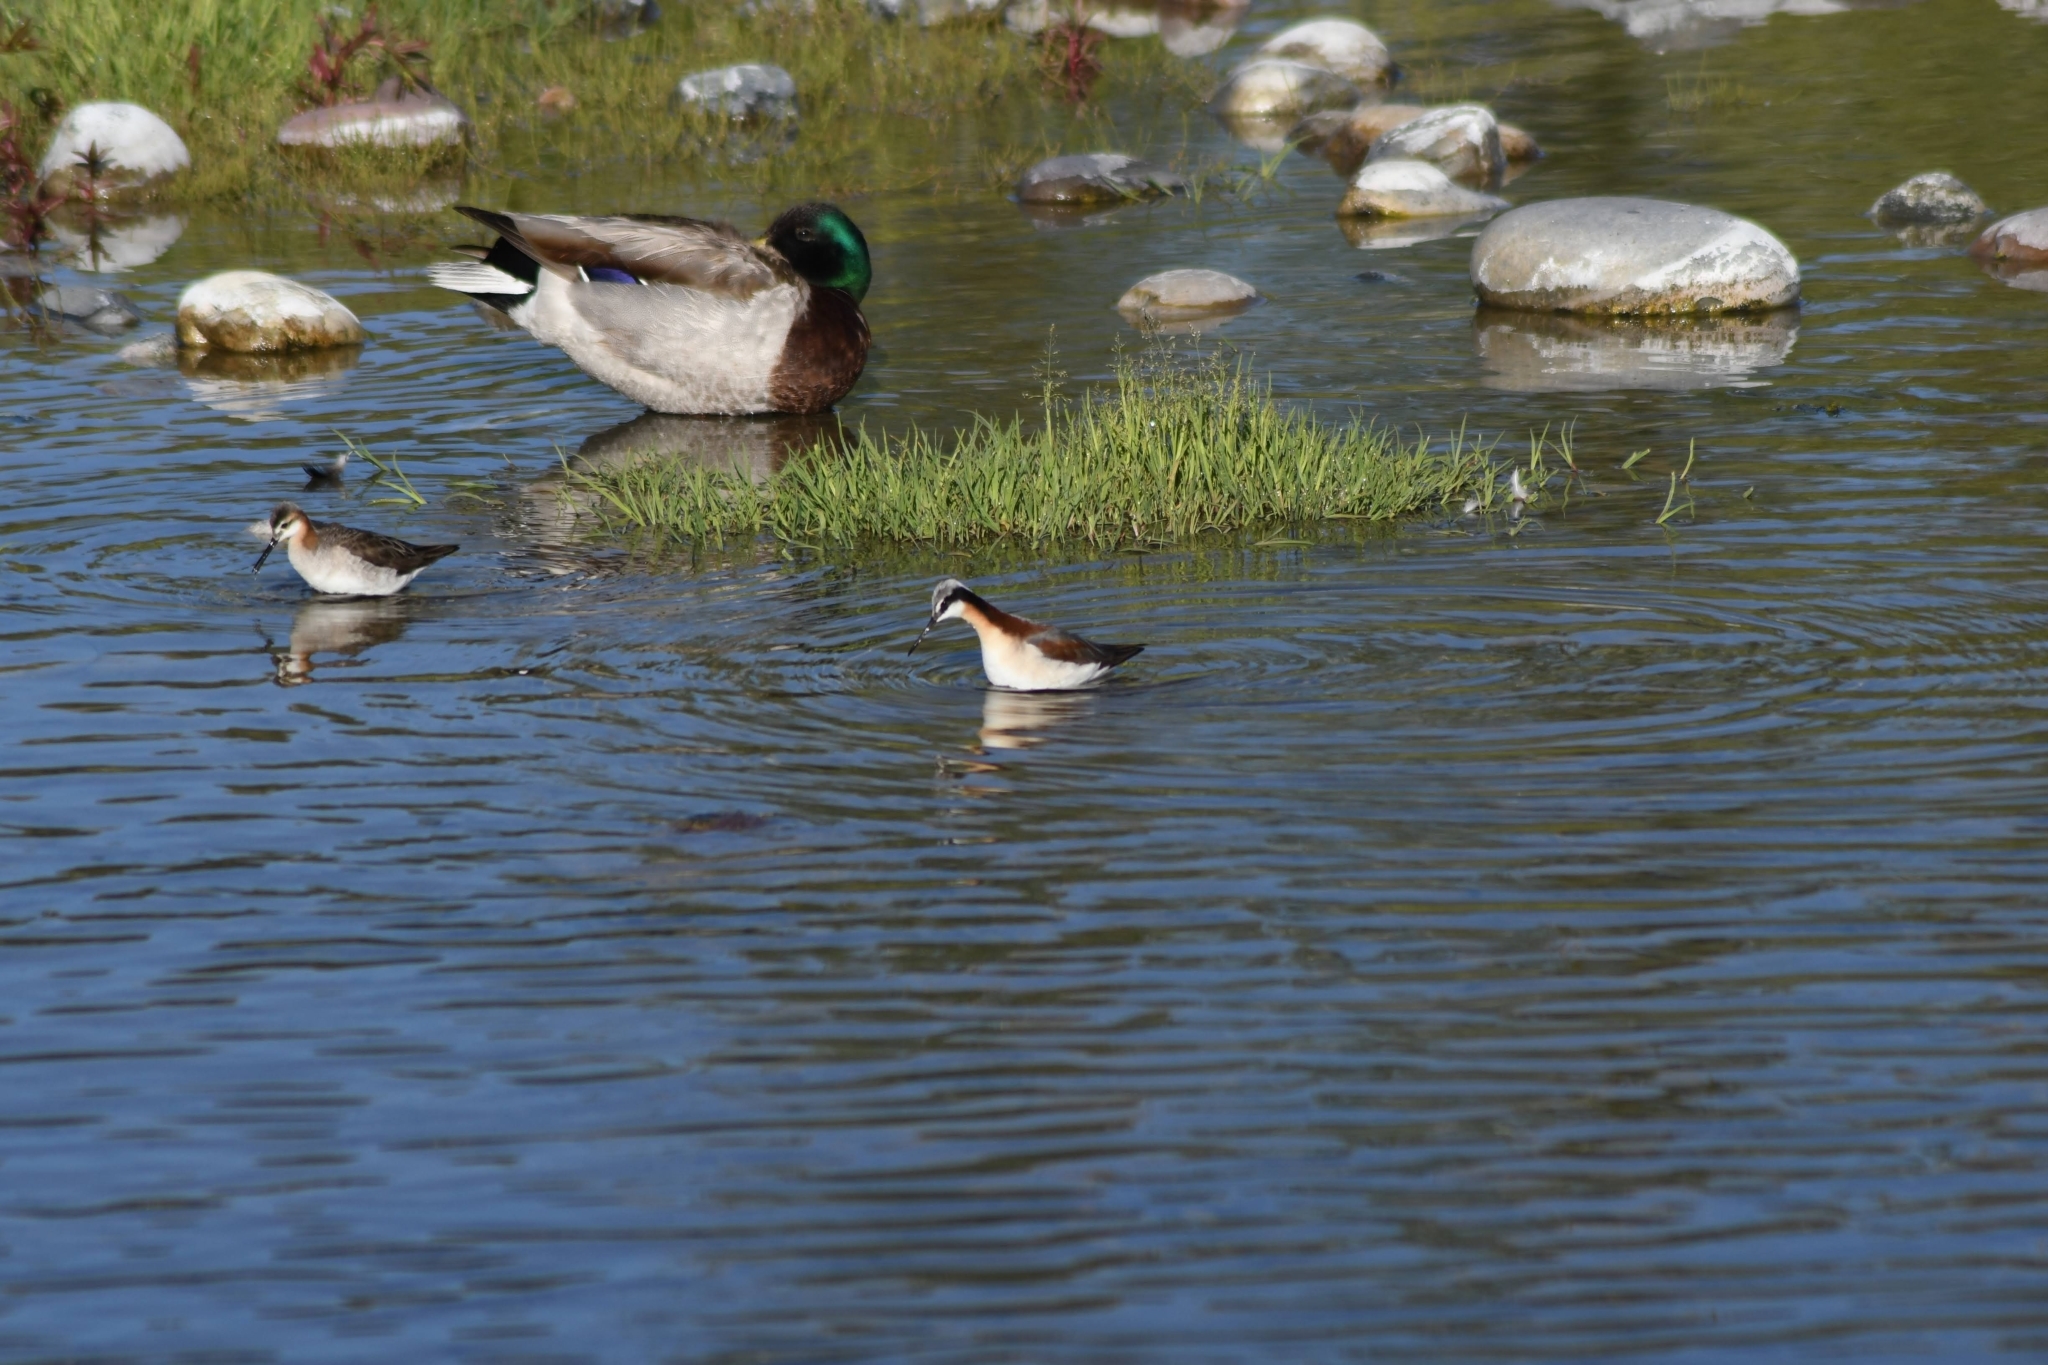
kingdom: Animalia
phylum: Chordata
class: Aves
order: Charadriiformes
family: Scolopacidae
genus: Phalaropus
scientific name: Phalaropus tricolor
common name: Wilson's phalarope
